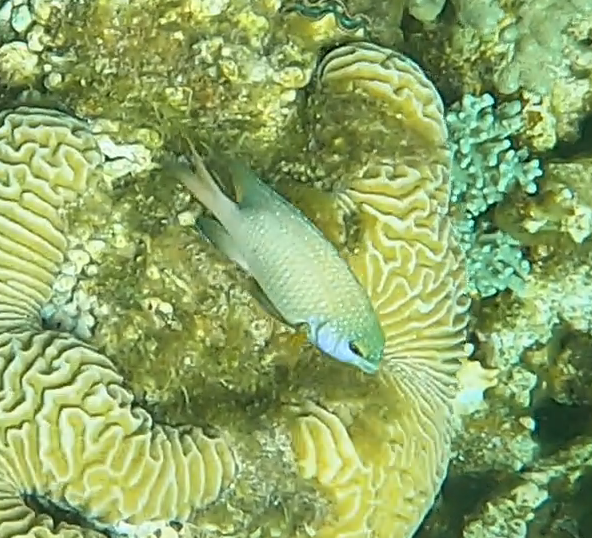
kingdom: Animalia
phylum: Chordata
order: Perciformes
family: Pomacentridae
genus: Plectroglyphidodon
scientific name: Plectroglyphidodon lacrymatus
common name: Jewel damsel
